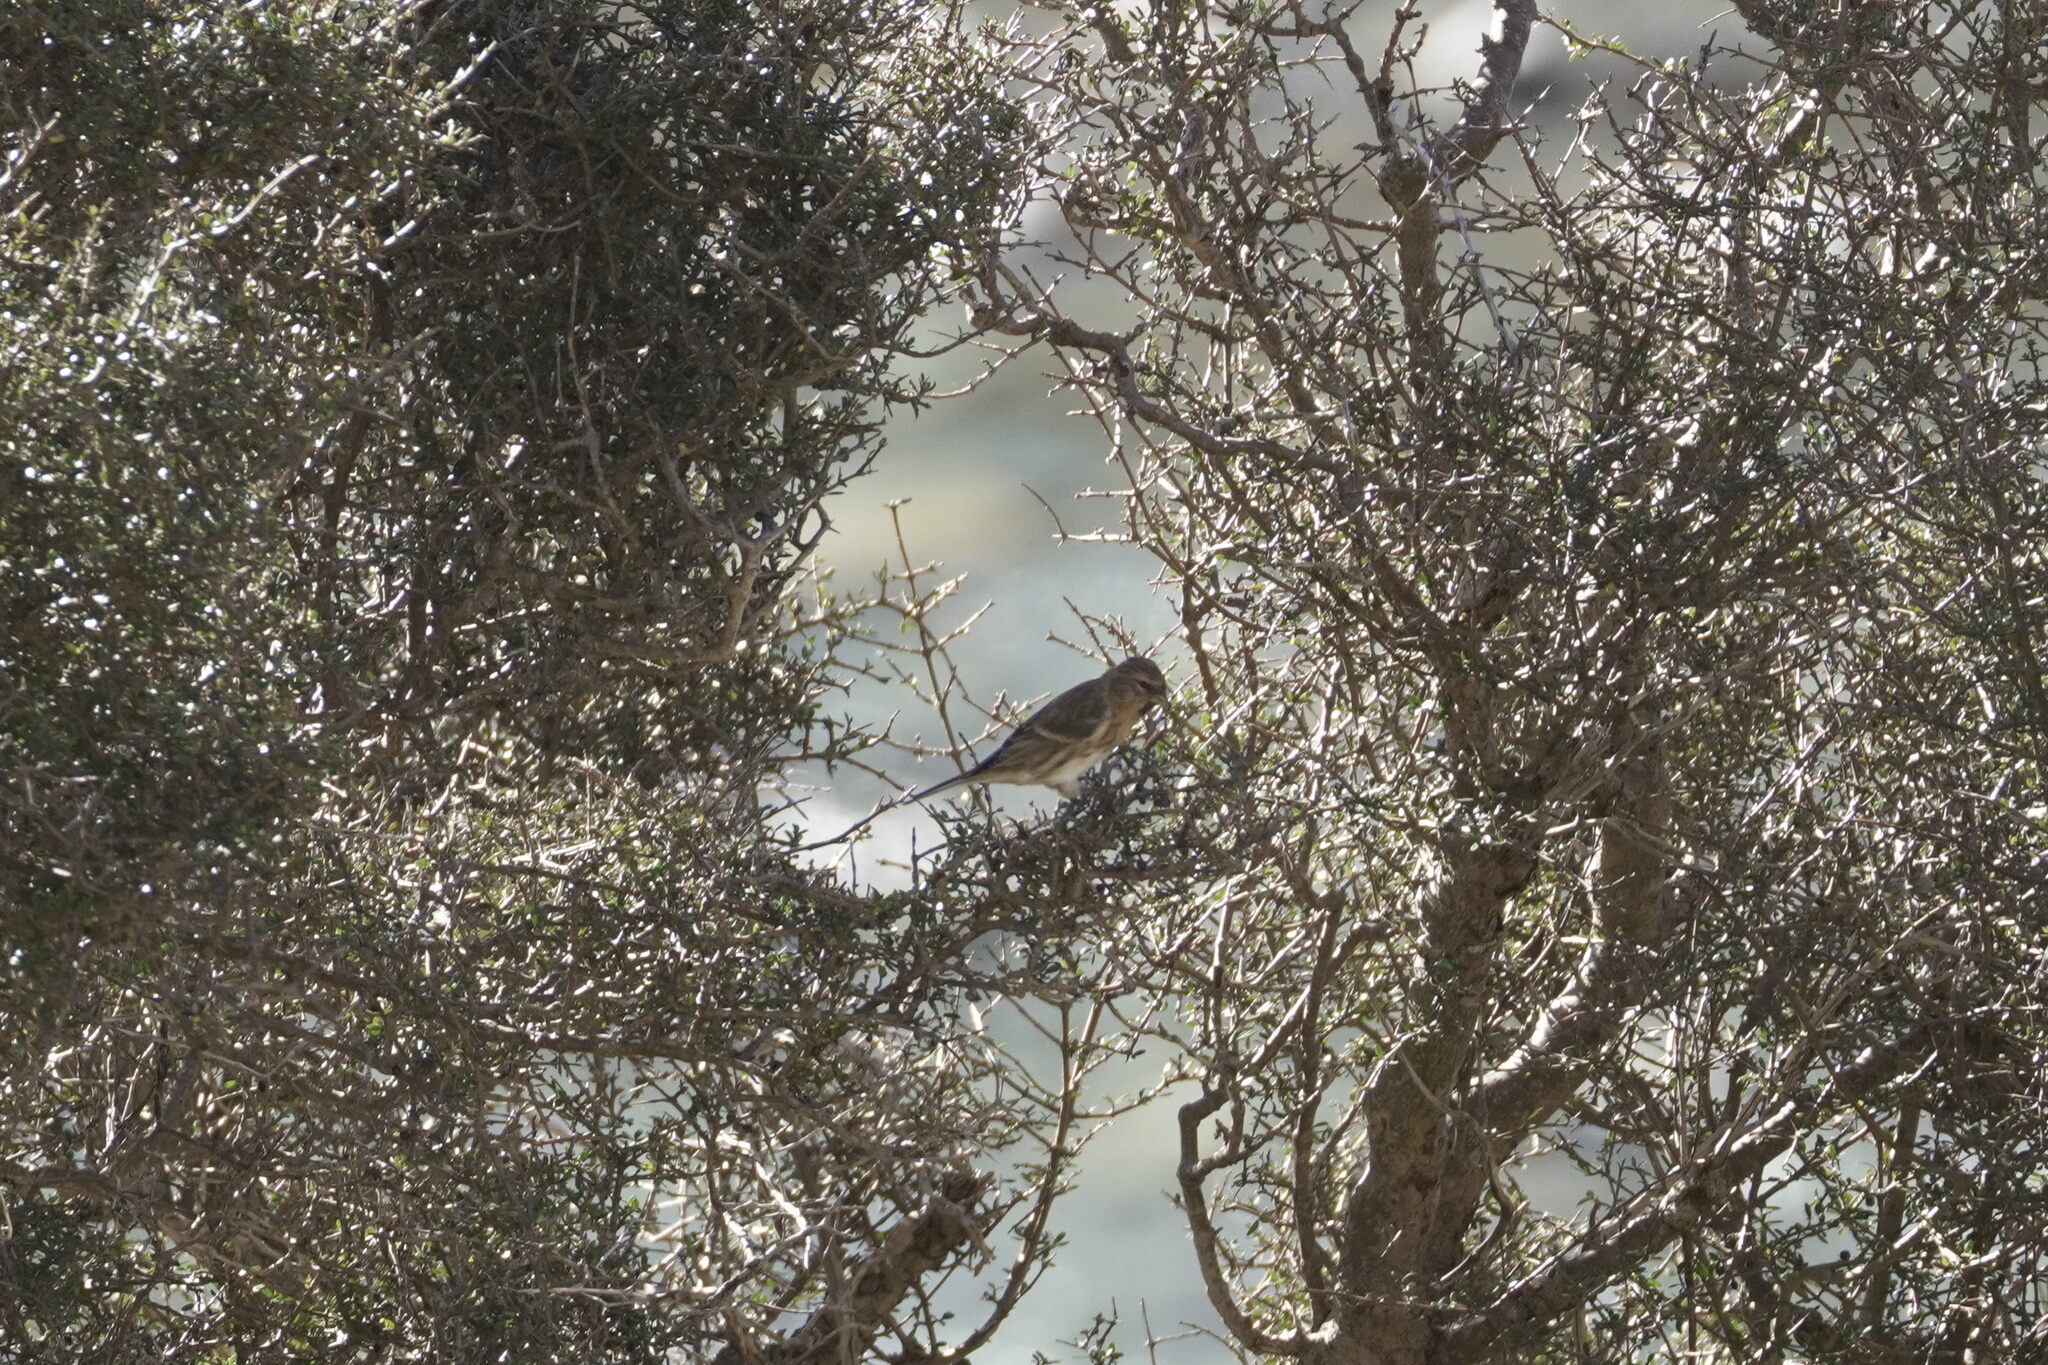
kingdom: Animalia
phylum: Chordata
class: Aves
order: Passeriformes
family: Fringillidae
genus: Acanthis
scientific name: Acanthis flammea
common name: Common redpoll
